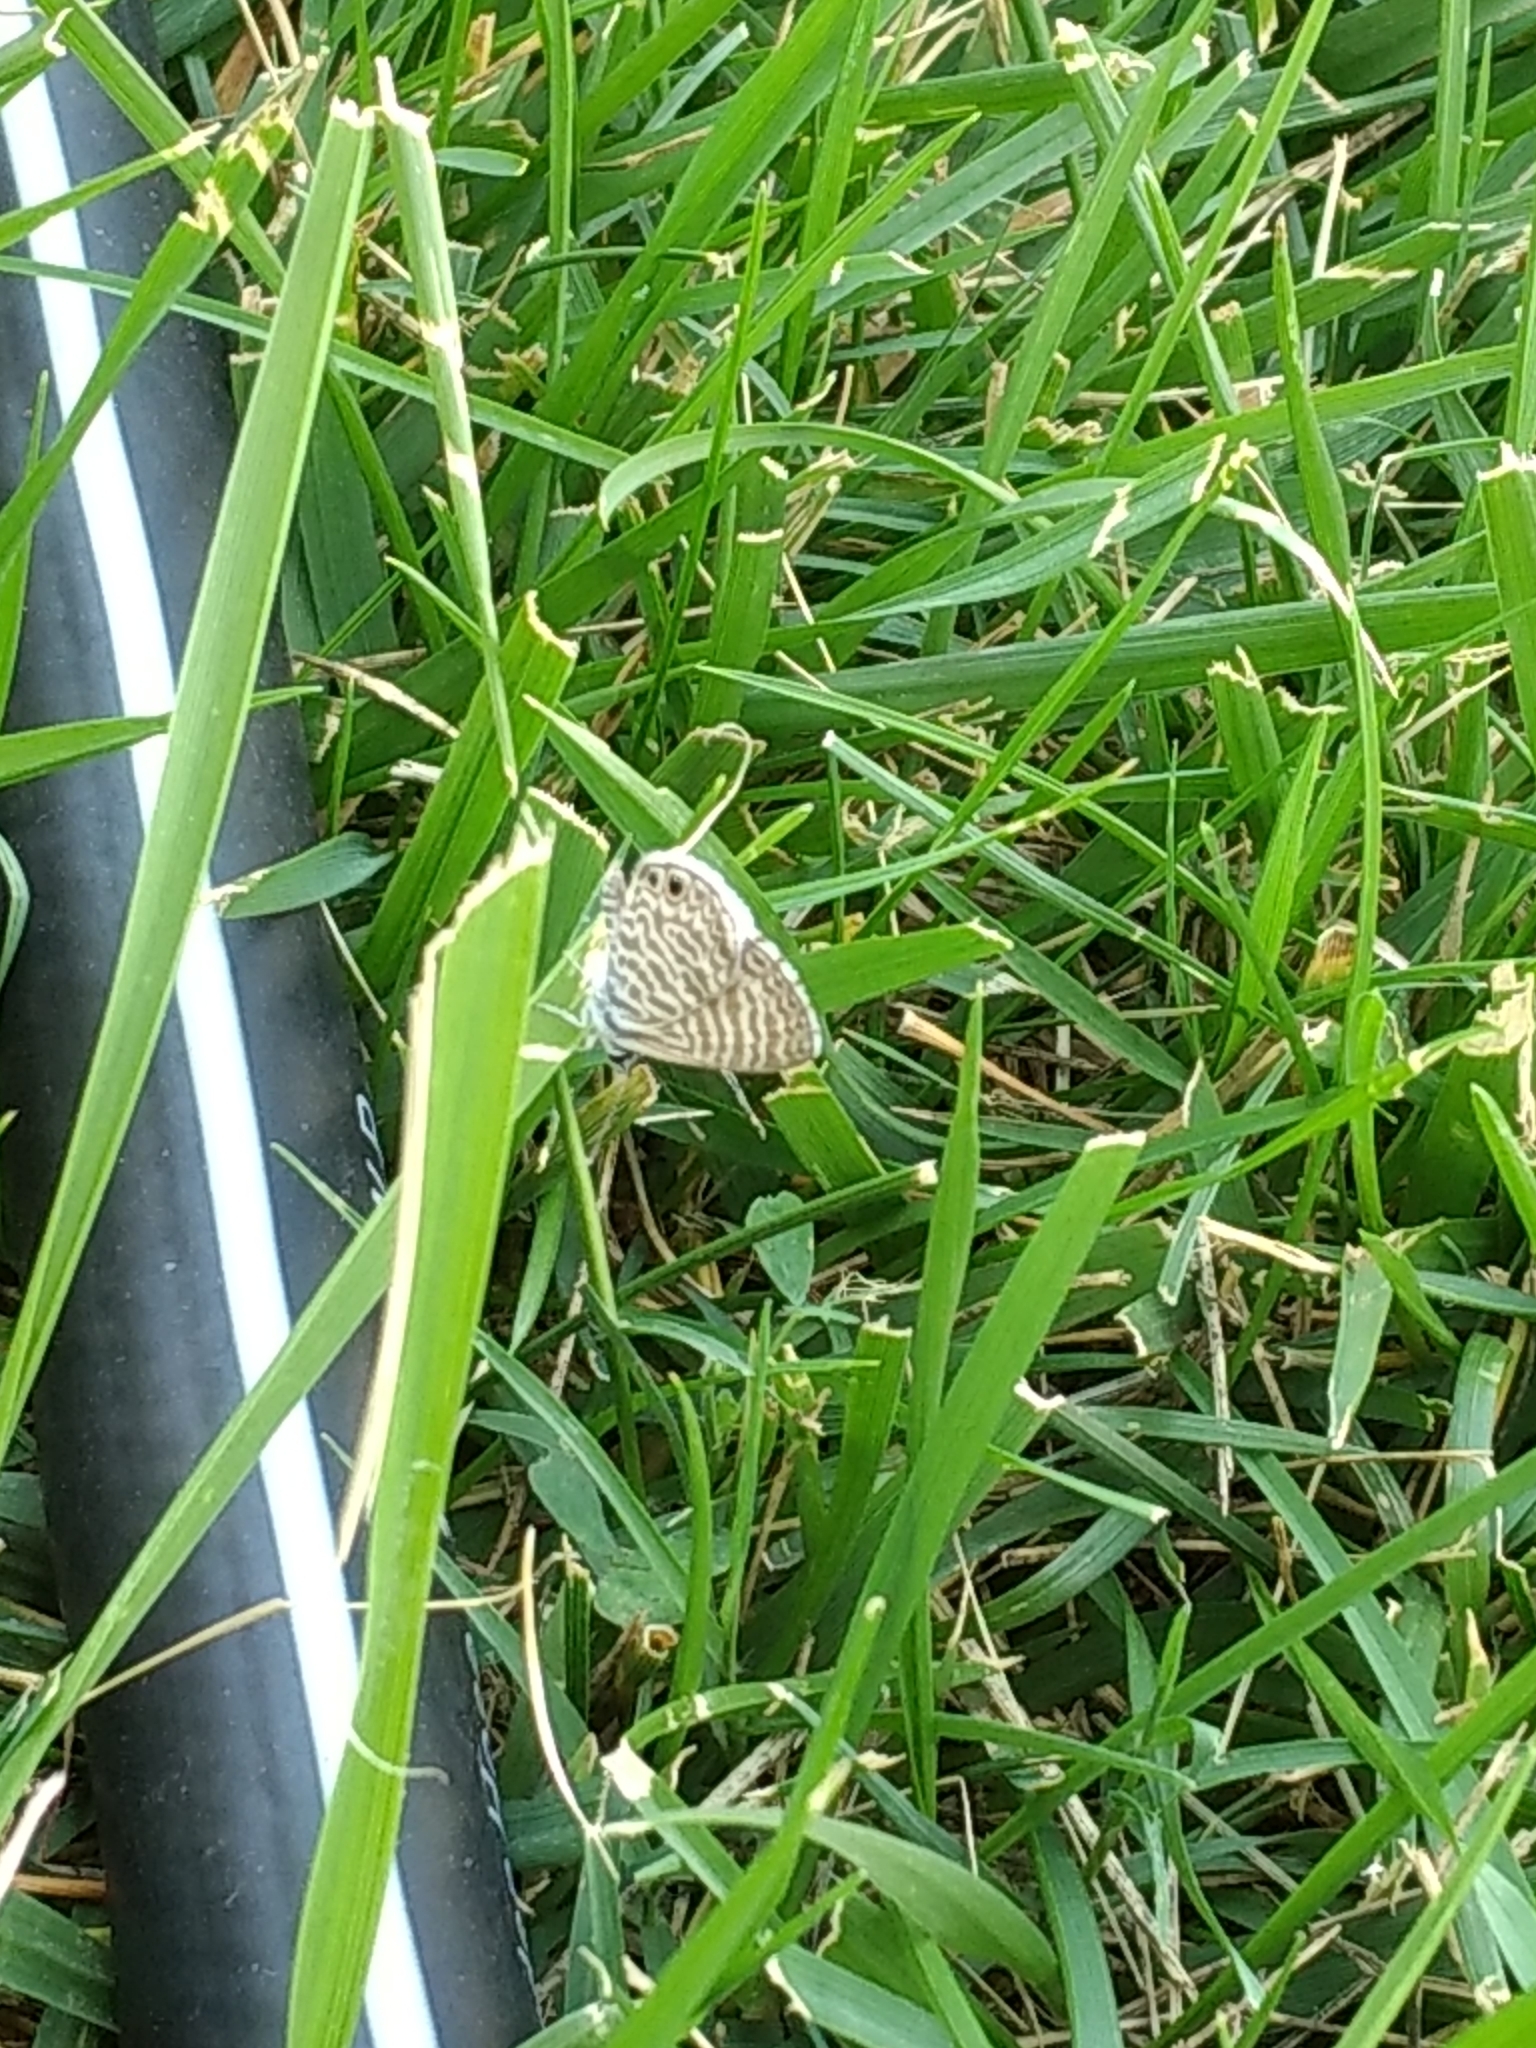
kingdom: Animalia
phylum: Arthropoda
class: Insecta
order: Lepidoptera
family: Lycaenidae
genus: Leptotes
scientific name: Leptotes marina
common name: Marine blue
